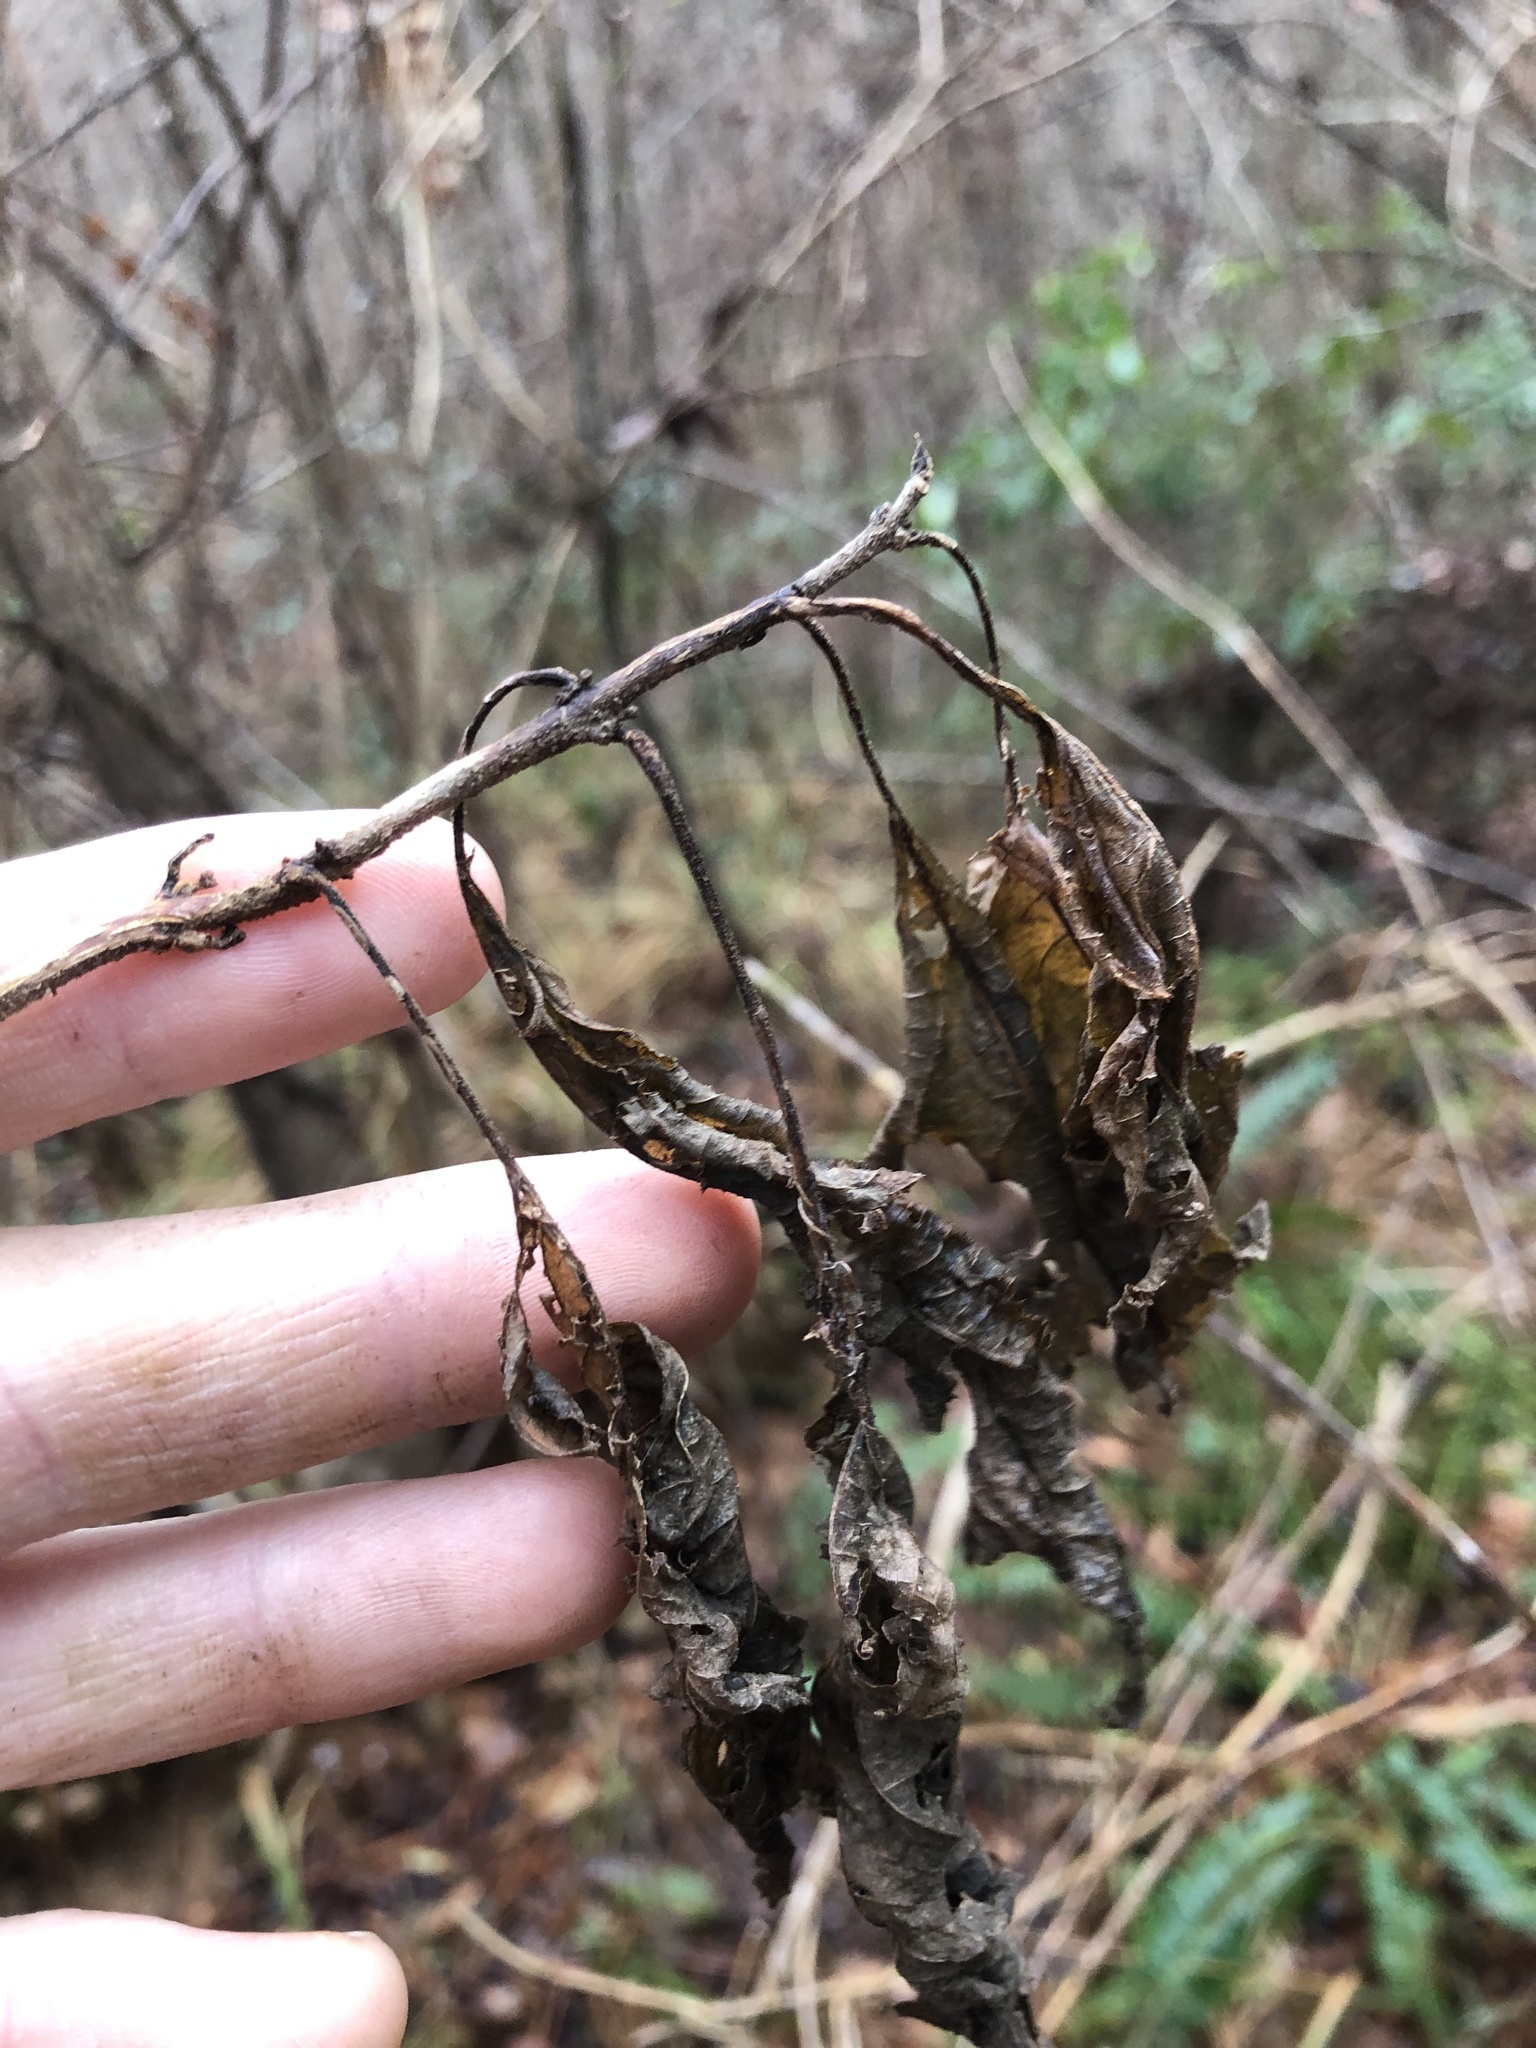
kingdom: Plantae
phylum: Tracheophyta
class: Magnoliopsida
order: Lamiales
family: Lamiaceae
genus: Callicarpa
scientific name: Callicarpa americana
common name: American beautyberry
